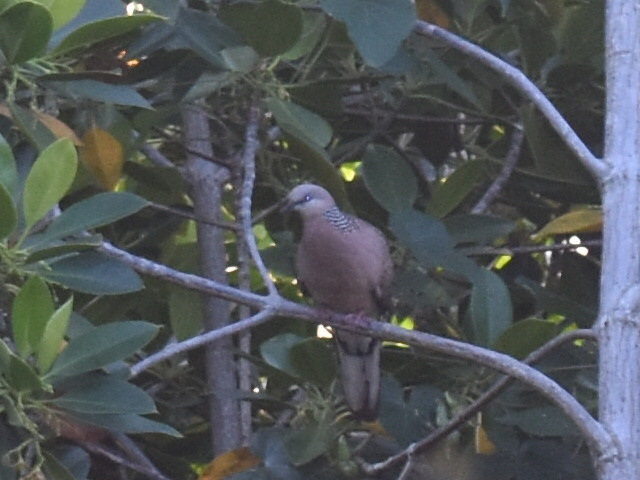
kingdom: Animalia
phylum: Chordata
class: Aves
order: Columbiformes
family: Columbidae
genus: Spilopelia
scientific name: Spilopelia chinensis
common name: Spotted dove
